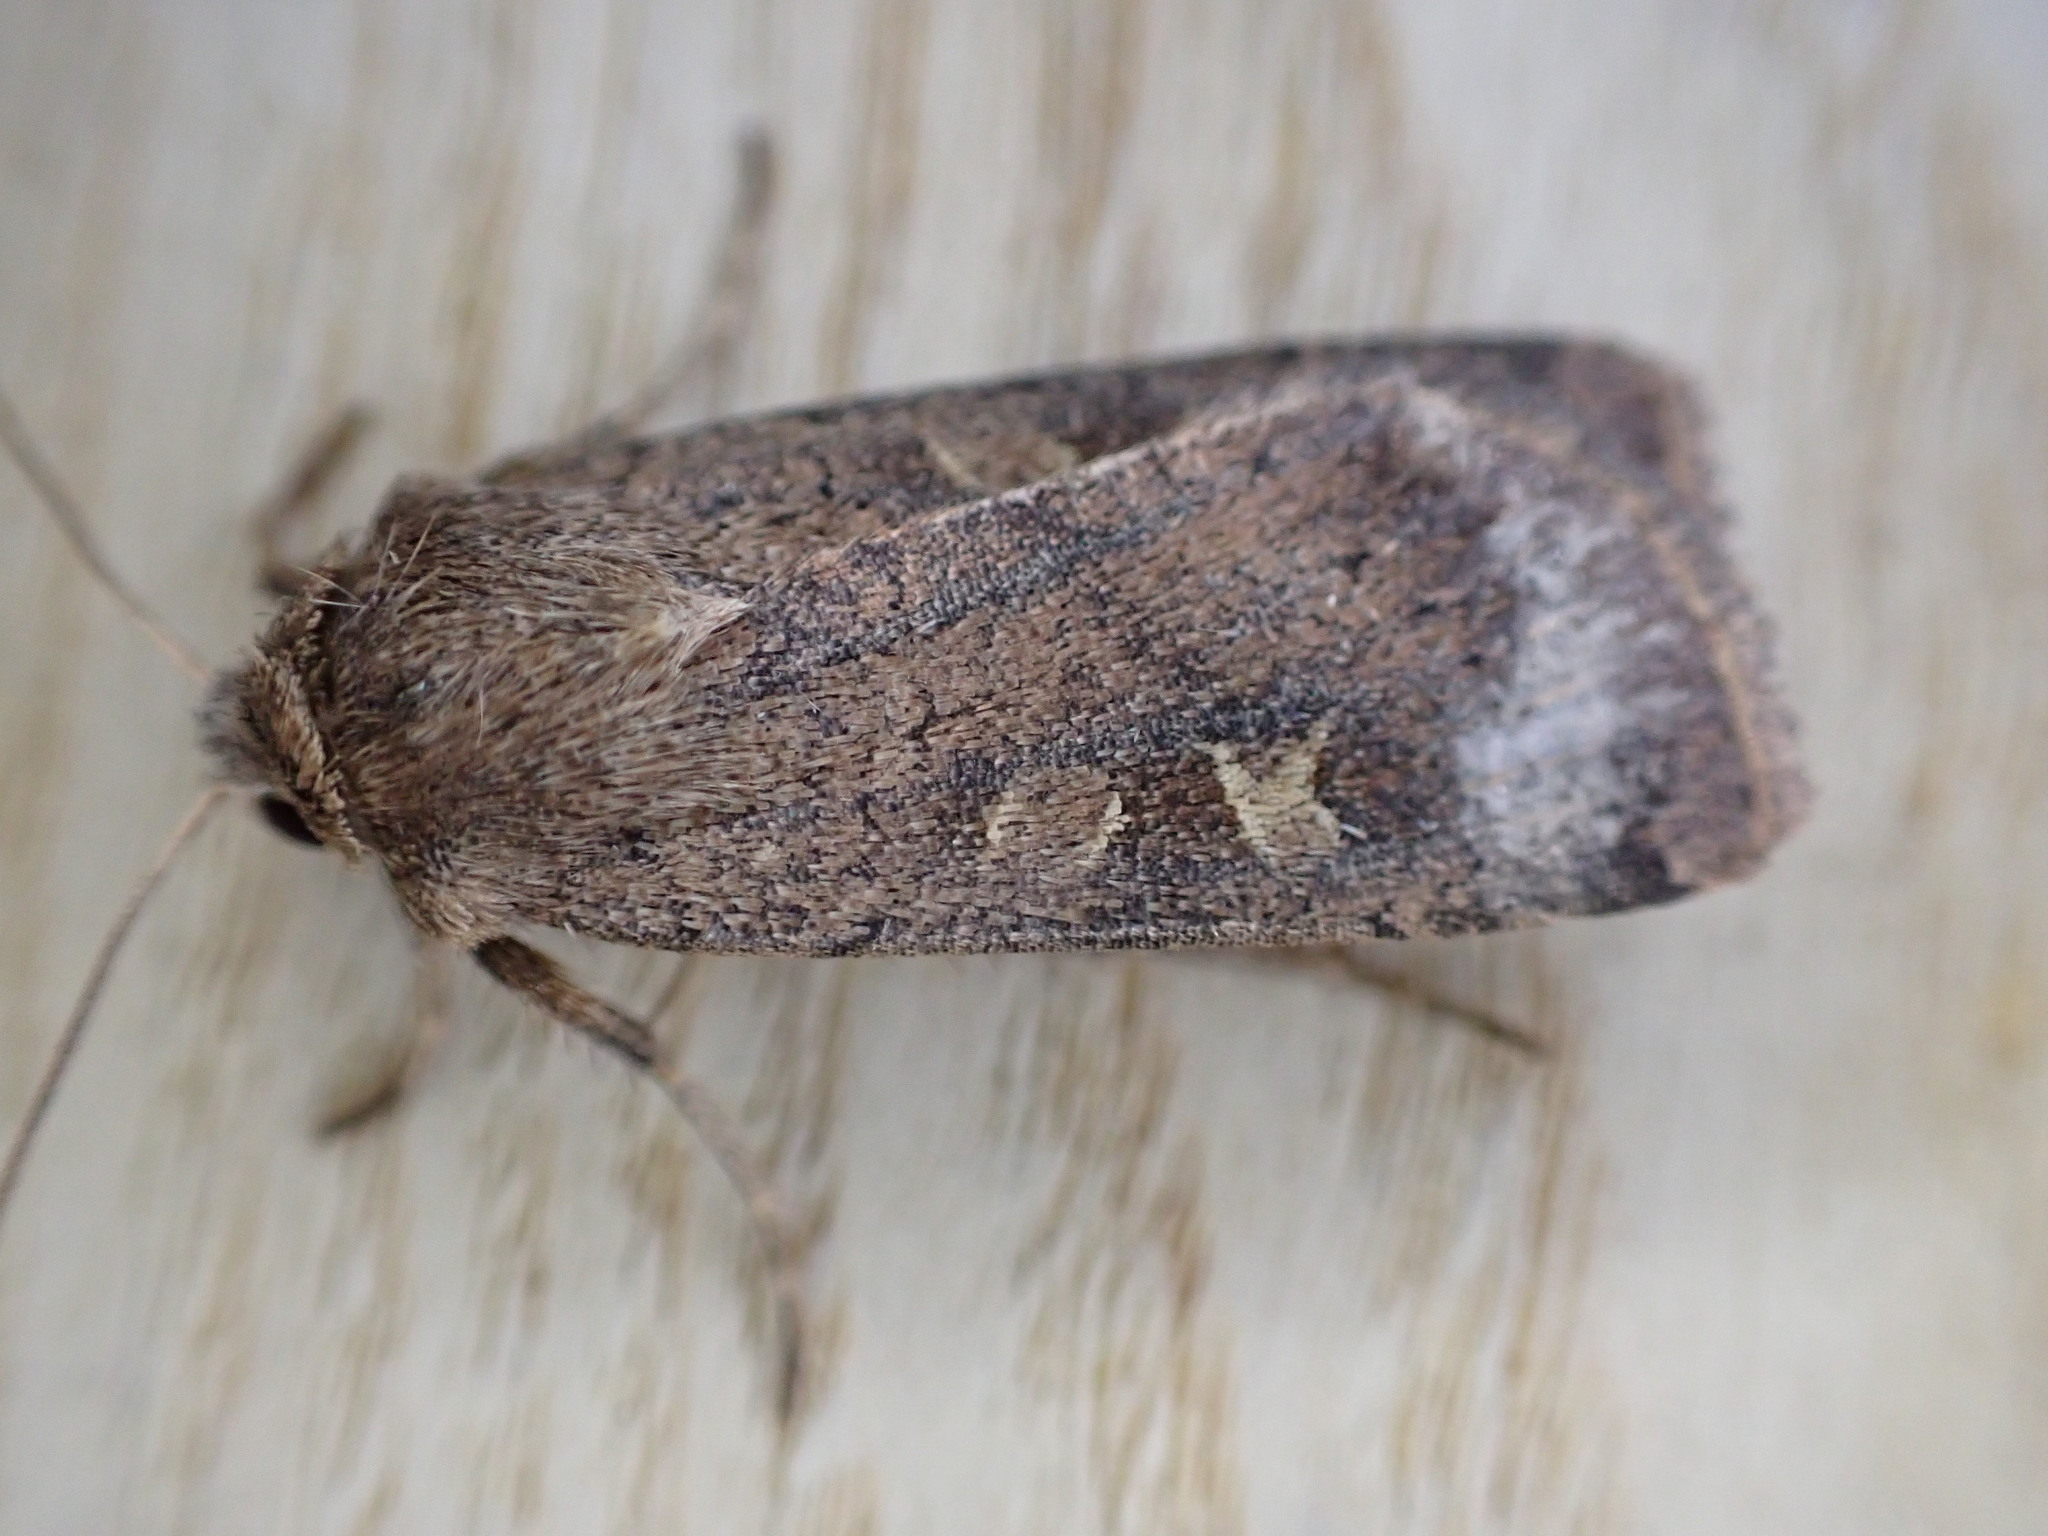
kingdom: Animalia
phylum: Arthropoda
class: Insecta
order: Lepidoptera
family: Noctuidae
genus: Xestia
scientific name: Xestia xanthographa
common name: Square-spot rustic
